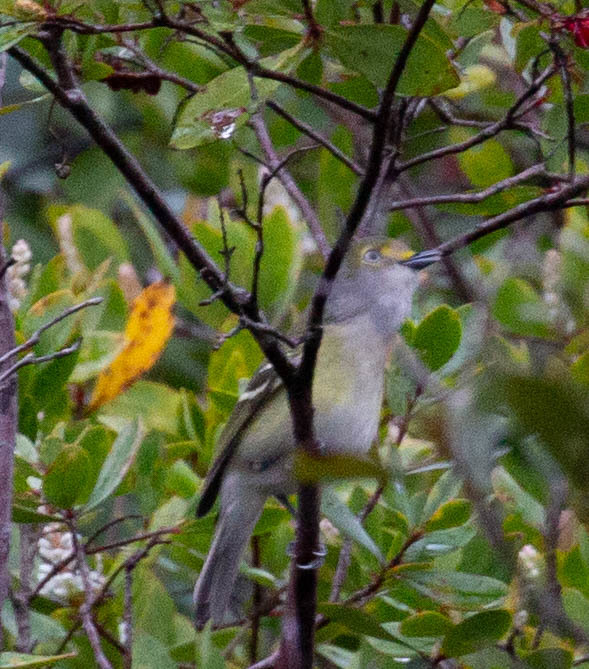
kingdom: Animalia
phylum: Chordata
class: Aves
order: Passeriformes
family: Vireonidae
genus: Vireo
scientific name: Vireo griseus
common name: White-eyed vireo
